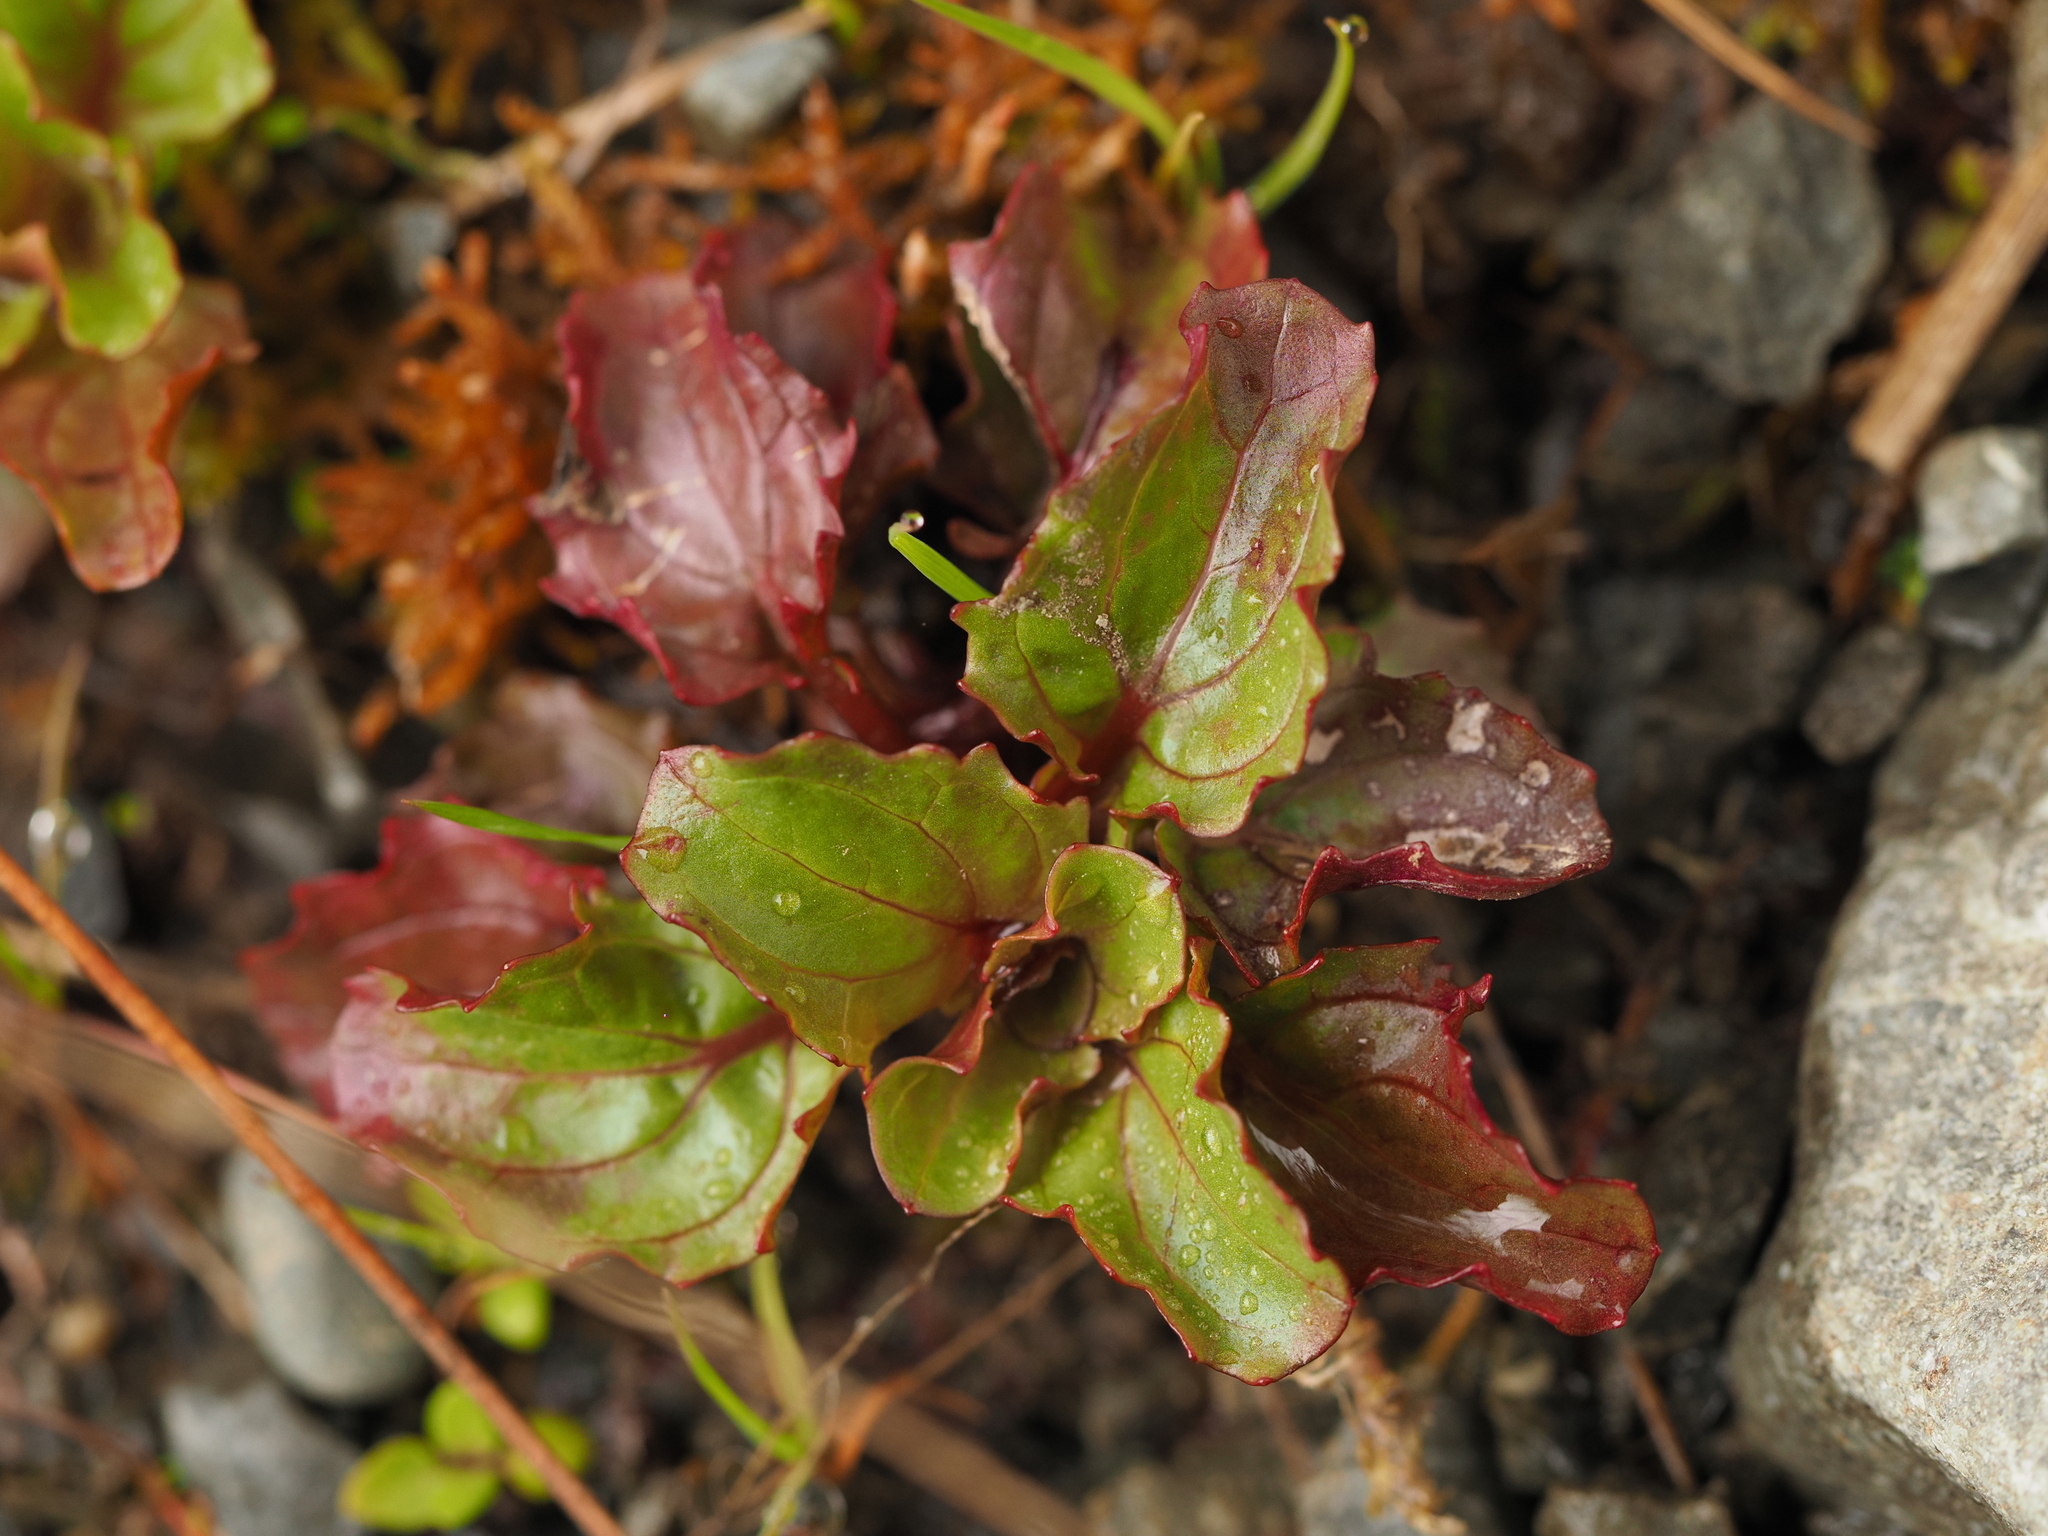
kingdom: Plantae
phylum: Tracheophyta
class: Magnoliopsida
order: Lamiales
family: Phrymaceae
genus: Erythranthe
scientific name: Erythranthe guttata
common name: Monkeyflower
